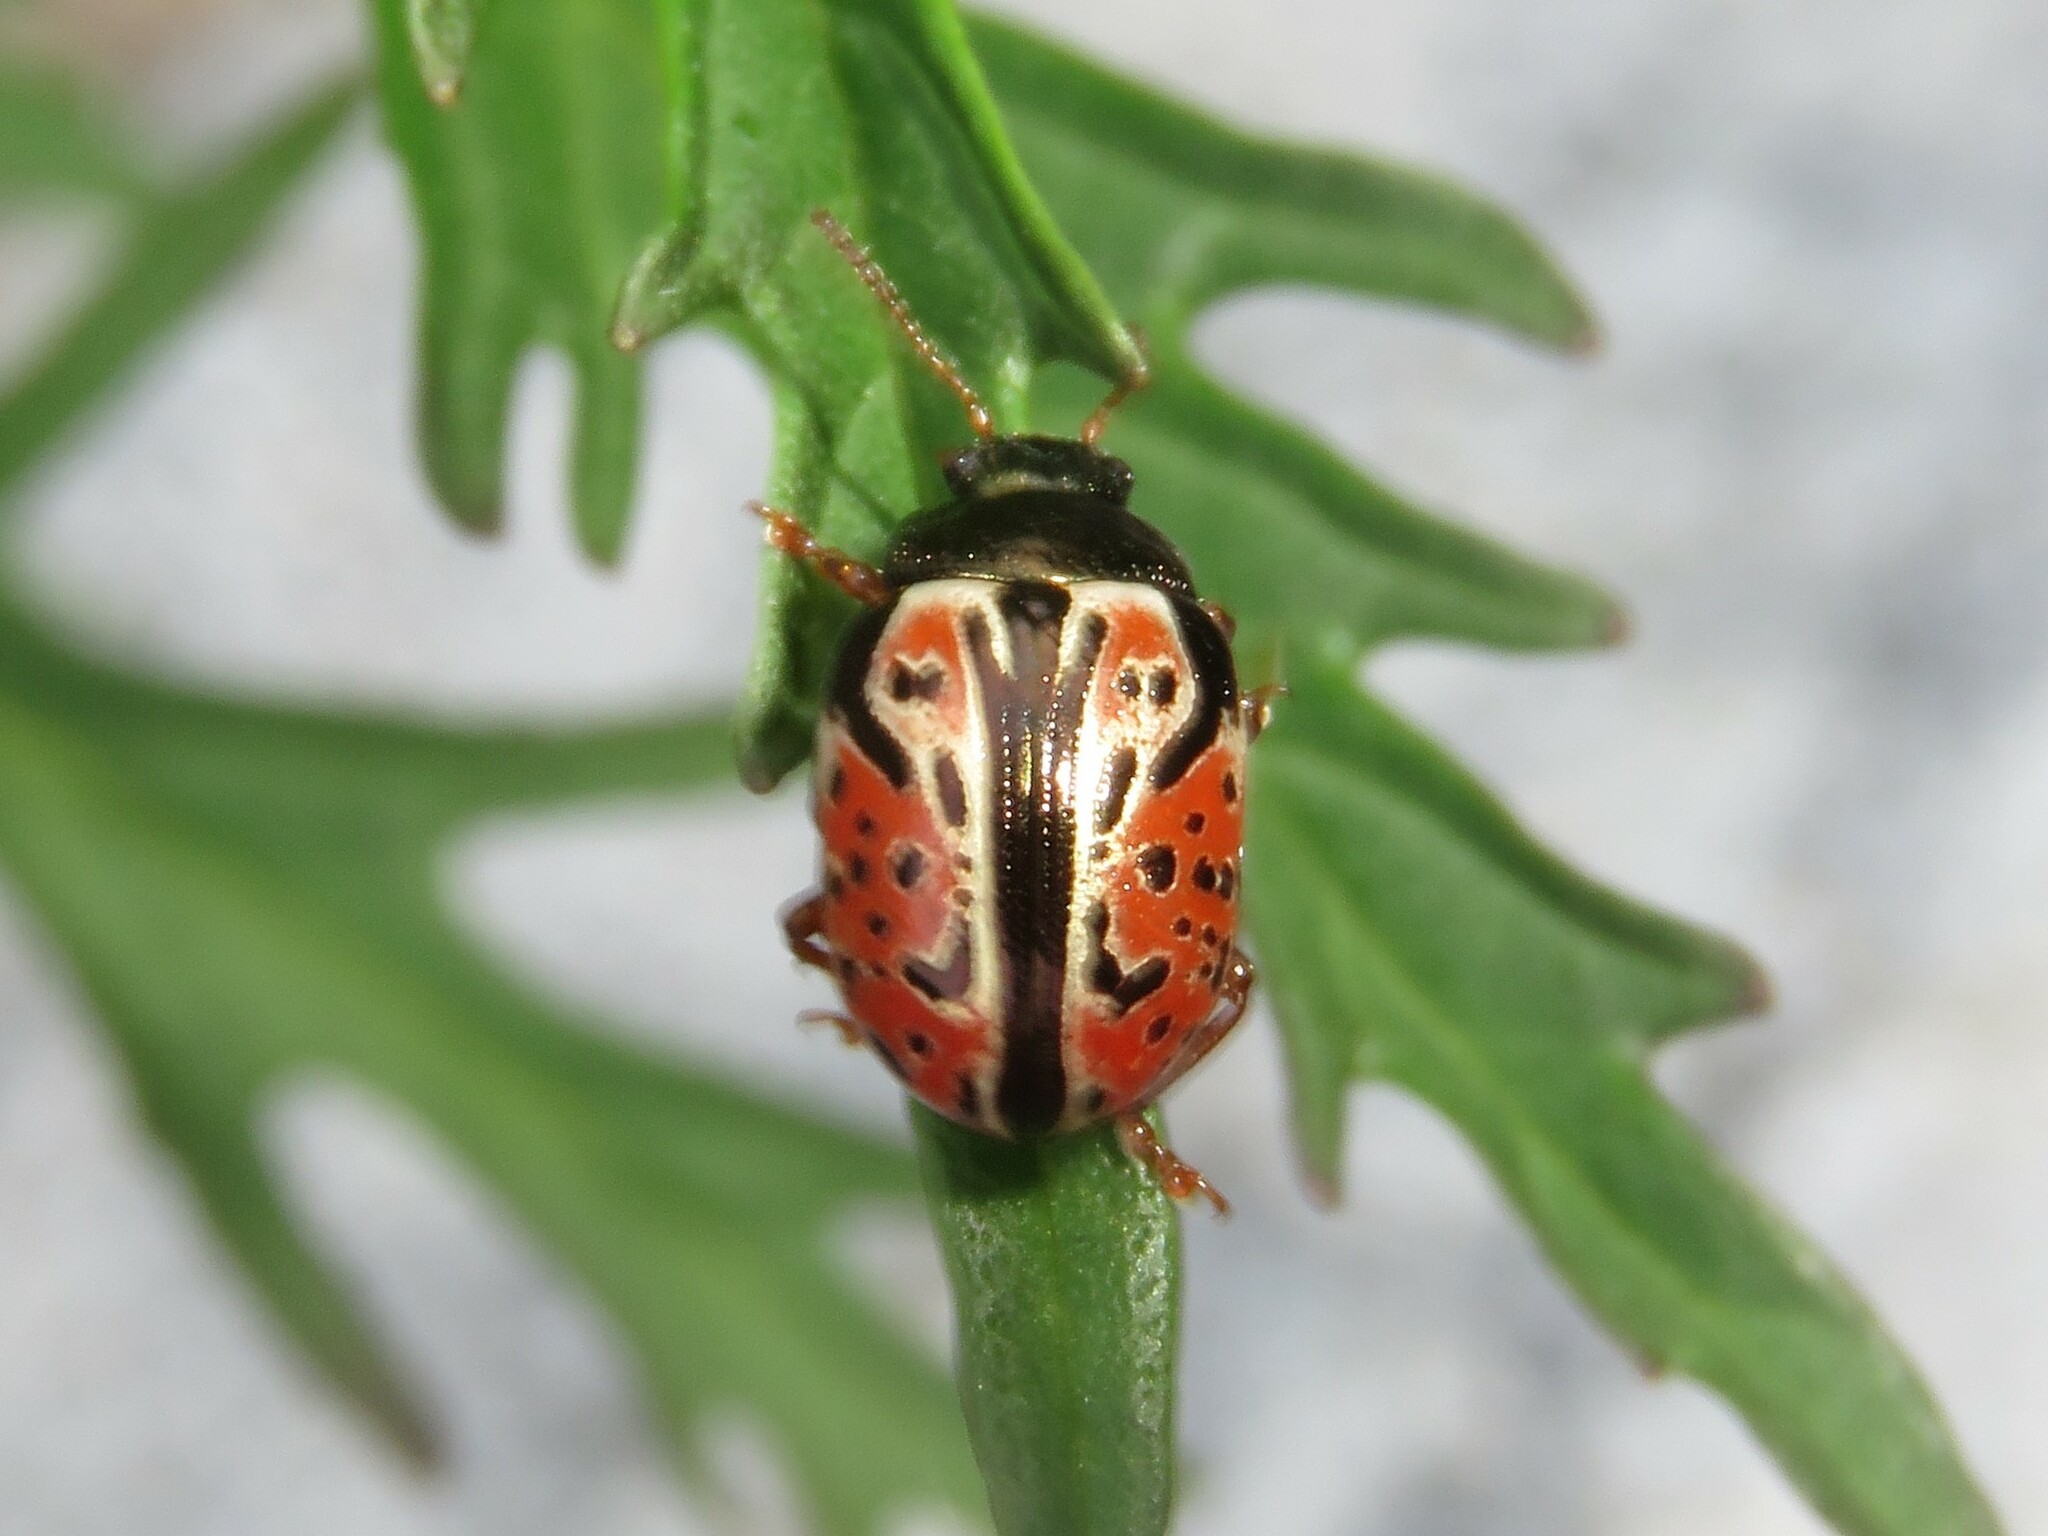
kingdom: Animalia
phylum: Arthropoda
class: Insecta
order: Coleoptera
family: Chrysomelidae
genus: Calligrapha
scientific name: Calligrapha spiraeae
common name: Ninebark calligrapha beetle
